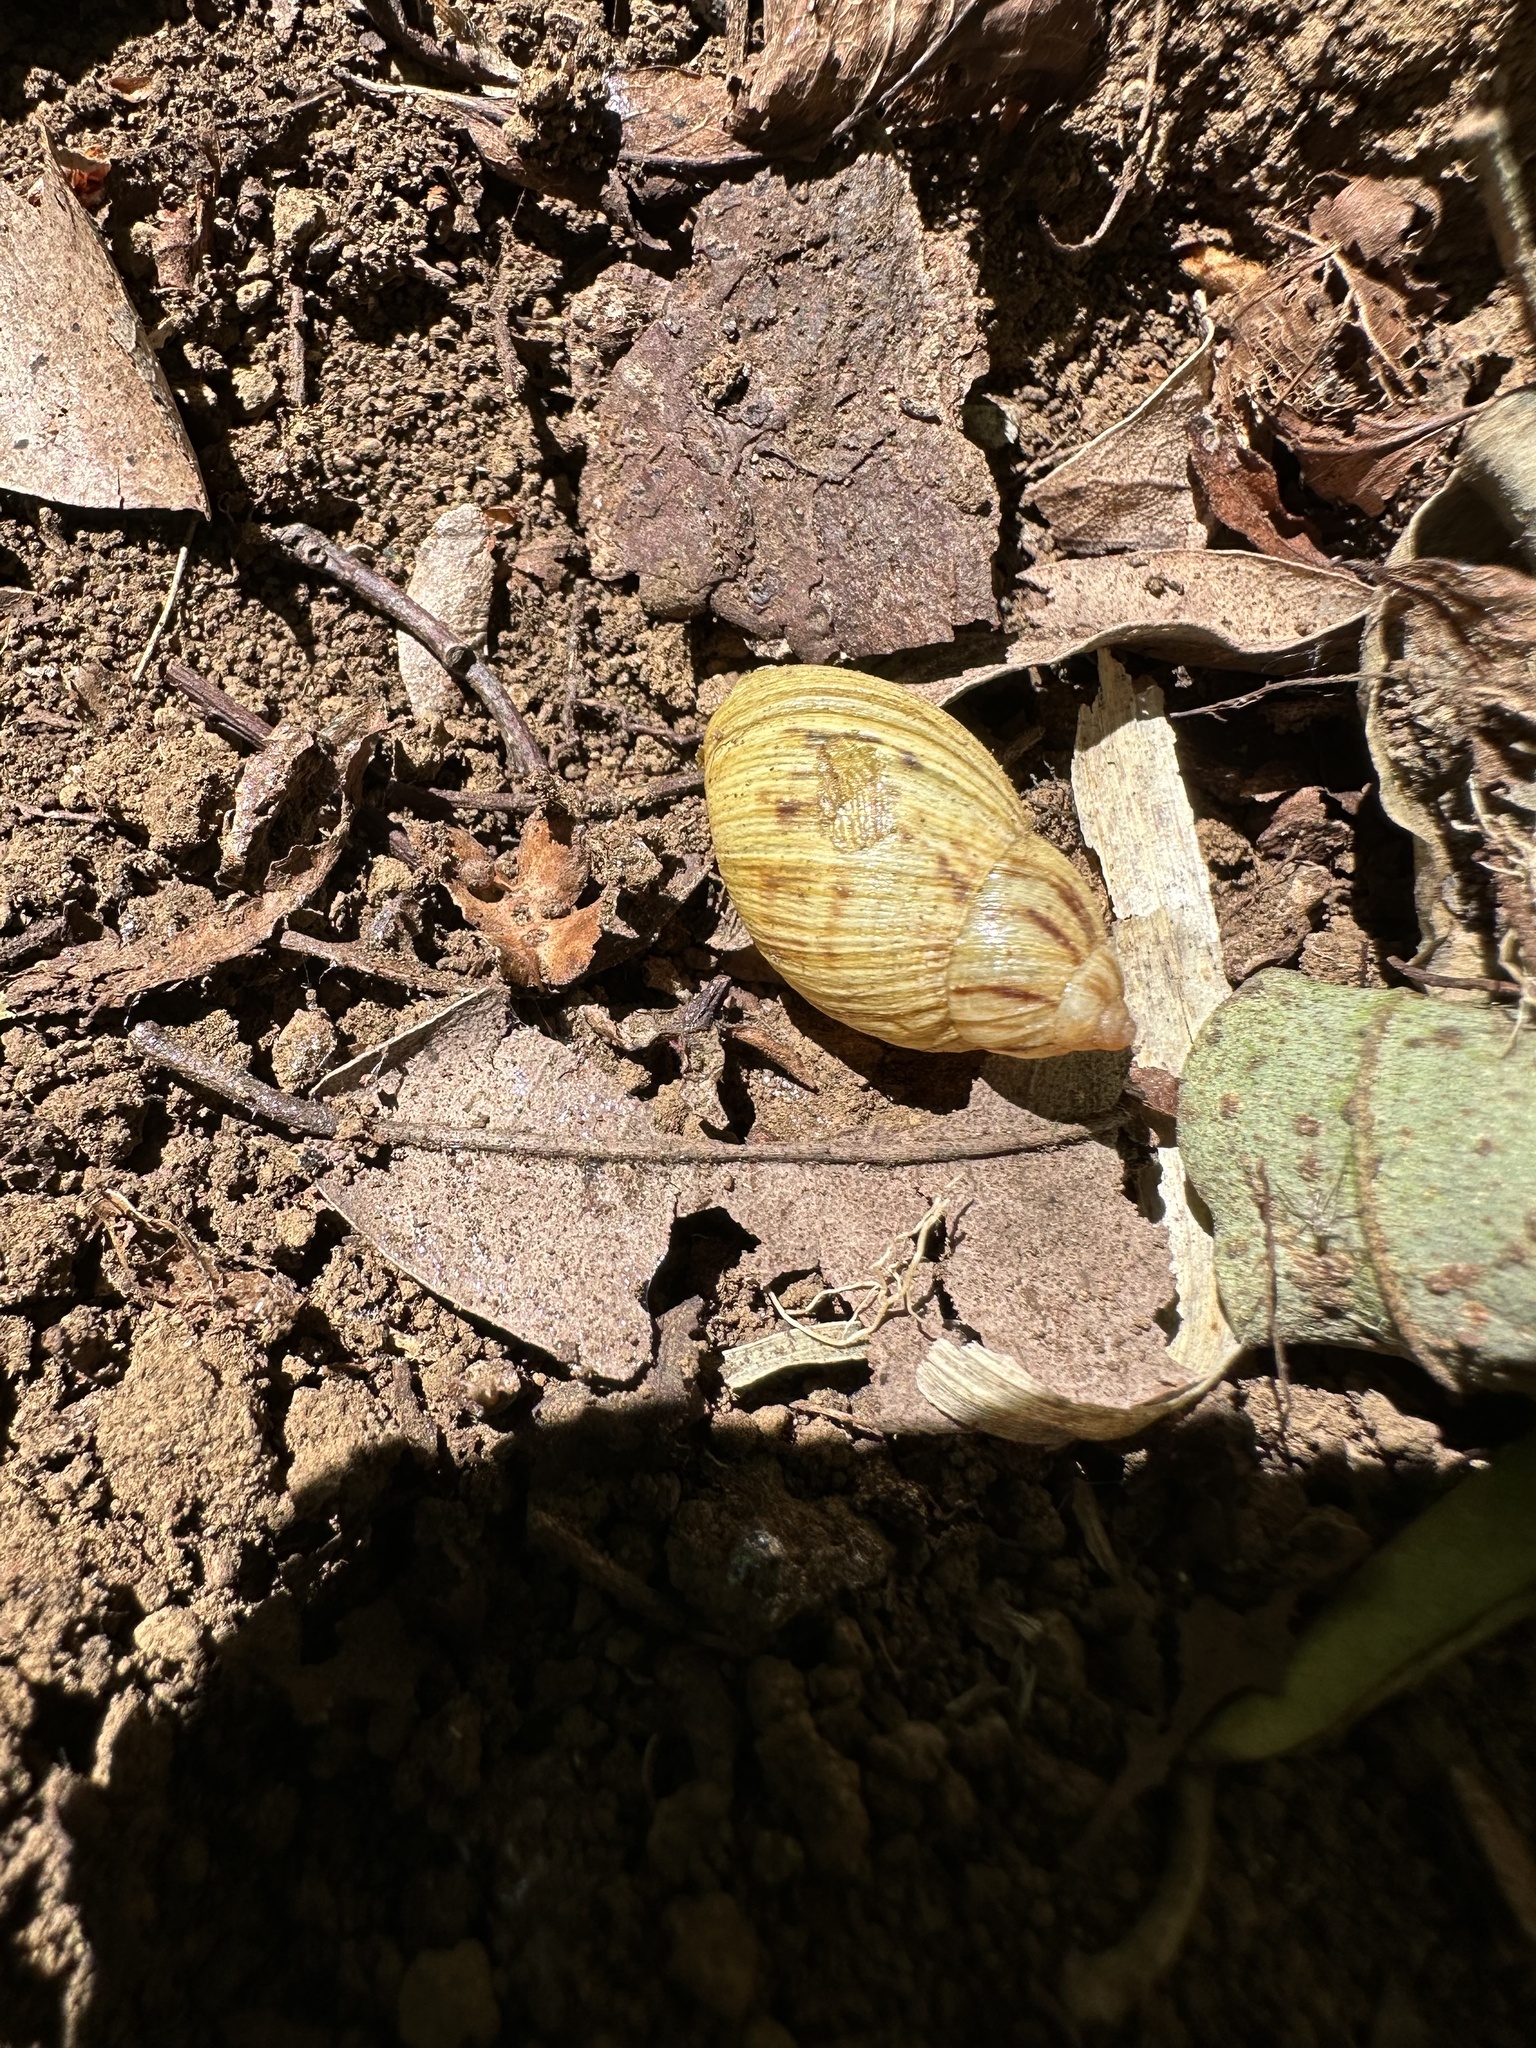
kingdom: Animalia
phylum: Mollusca
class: Gastropoda
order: Stylommatophora
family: Bothriembryontidae
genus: Plectostylus
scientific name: Plectostylus
